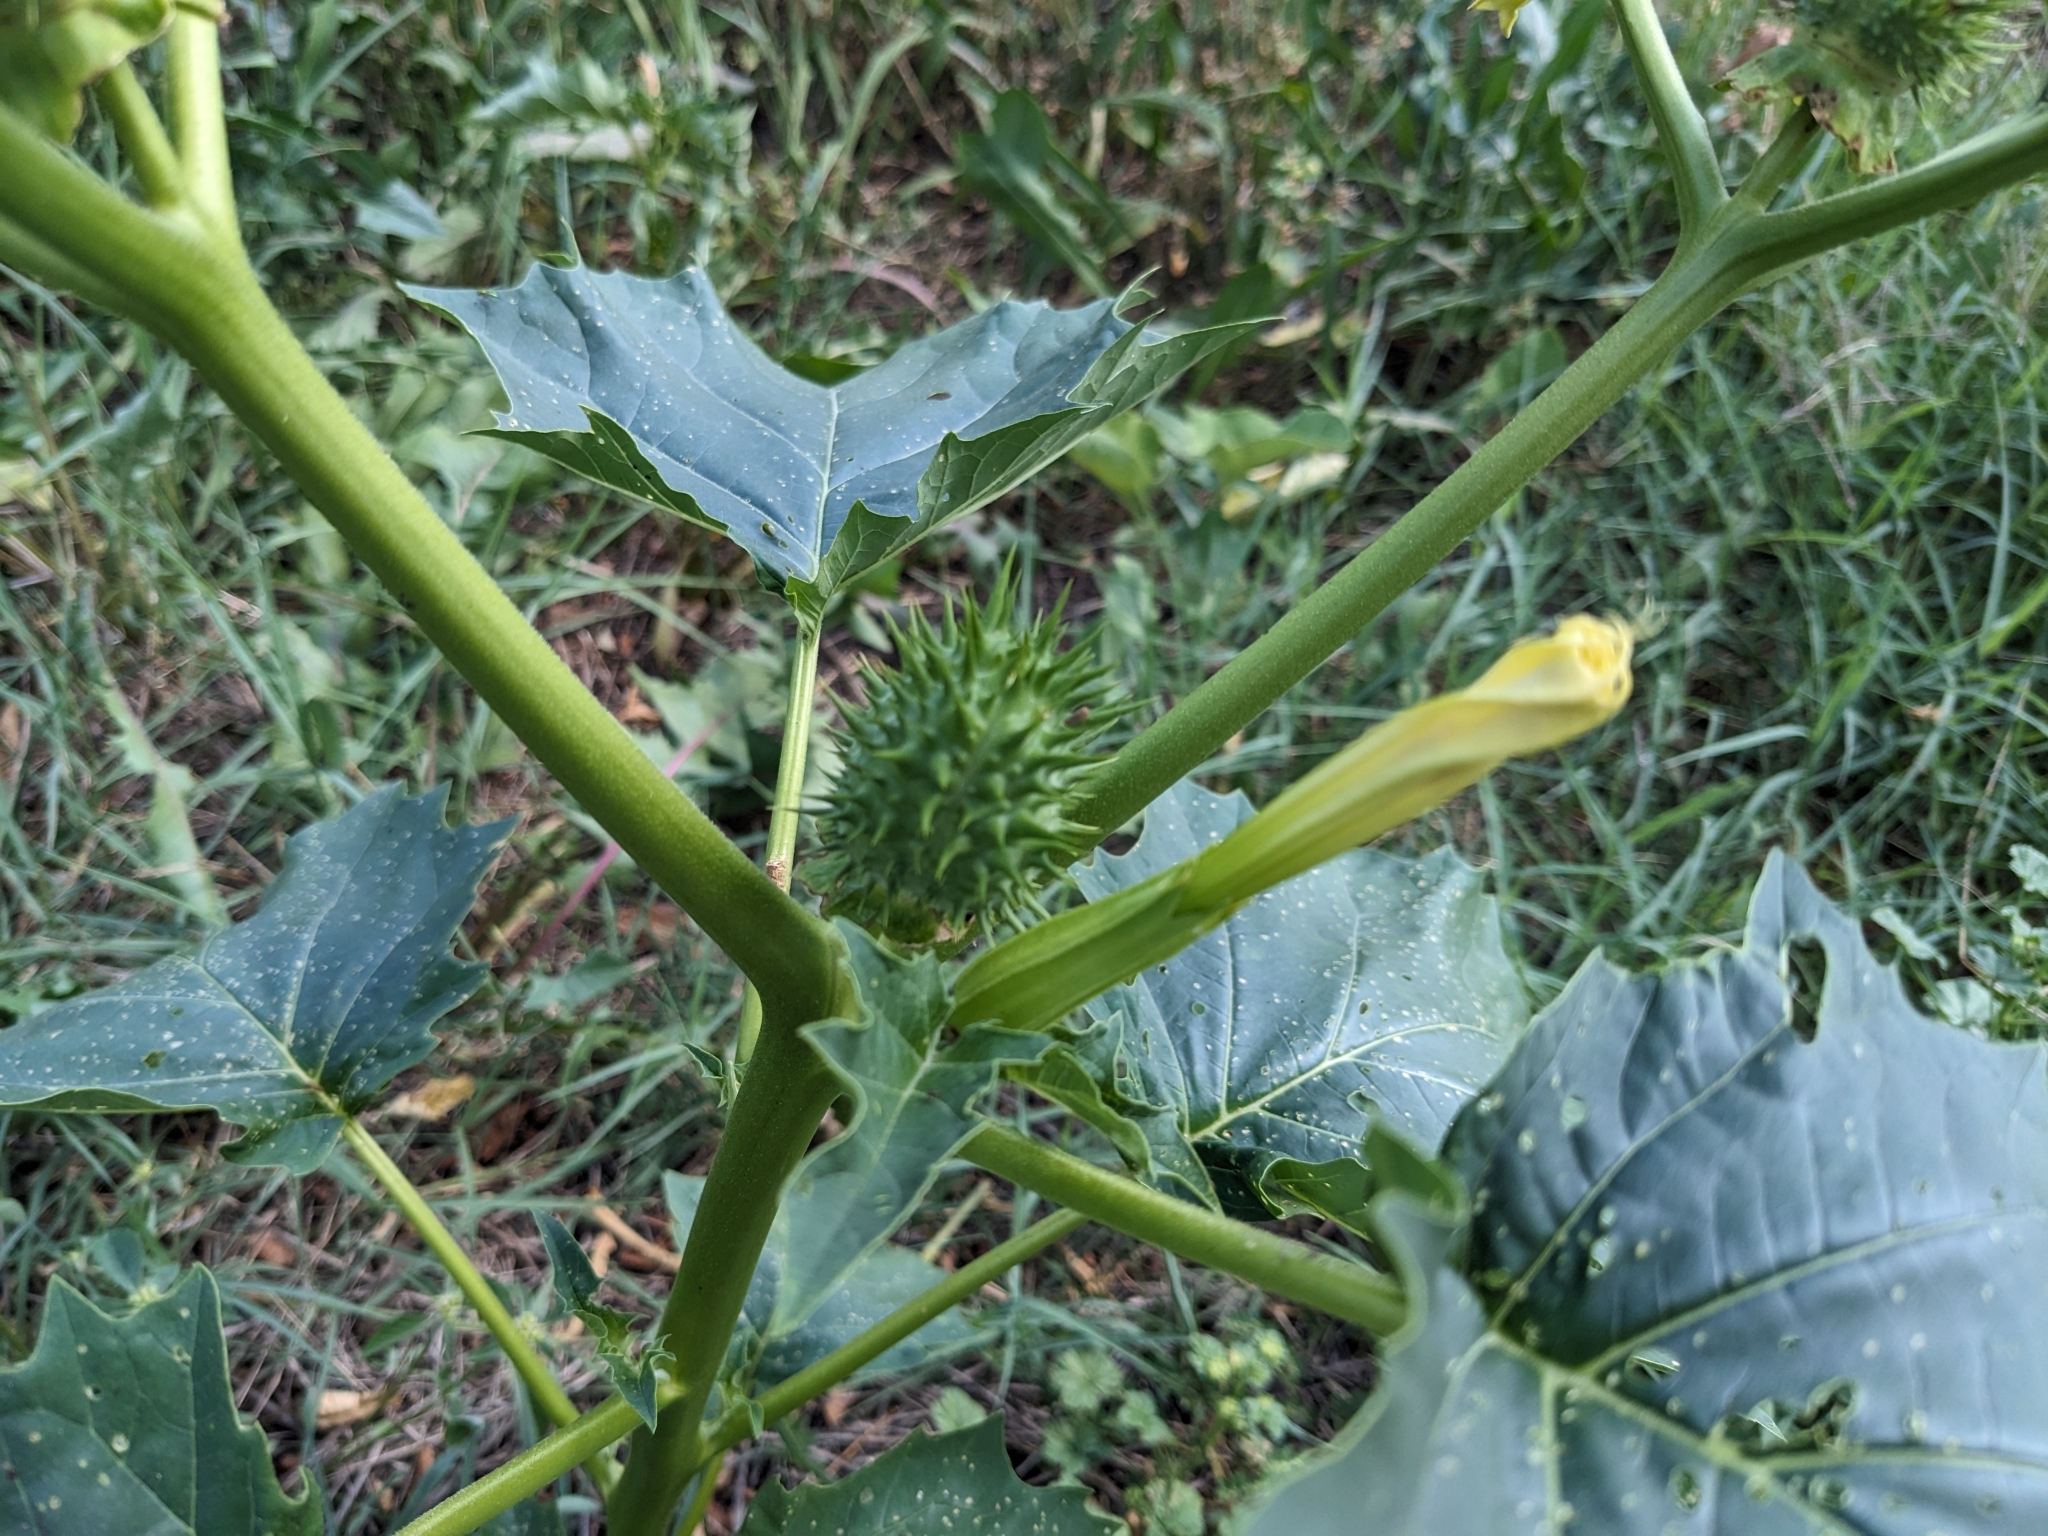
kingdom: Plantae
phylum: Tracheophyta
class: Magnoliopsida
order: Solanales
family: Solanaceae
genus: Datura
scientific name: Datura stramonium
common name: Thorn-apple
